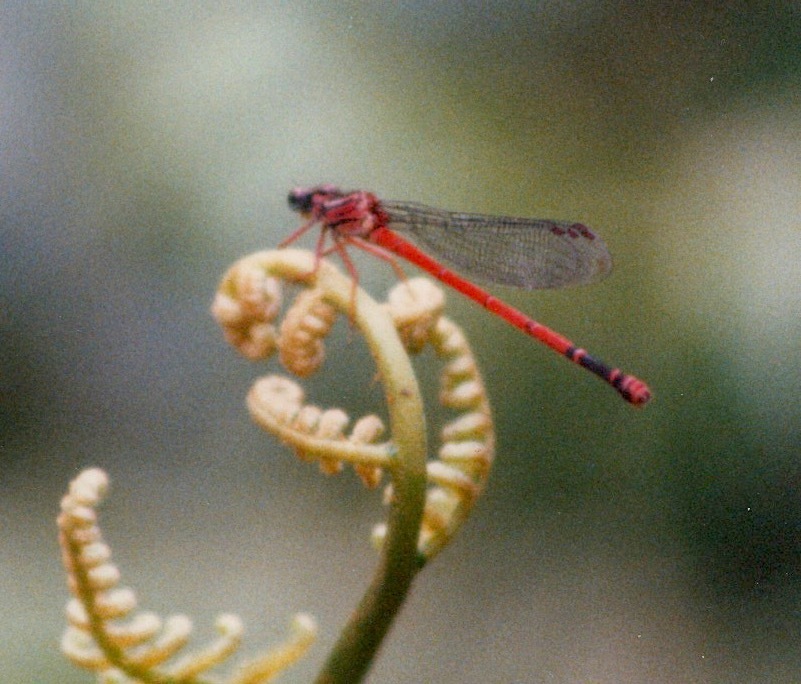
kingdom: Animalia
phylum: Arthropoda
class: Insecta
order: Odonata
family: Coenagrionidae
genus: Megalagrion
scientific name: Megalagrion blackburni
